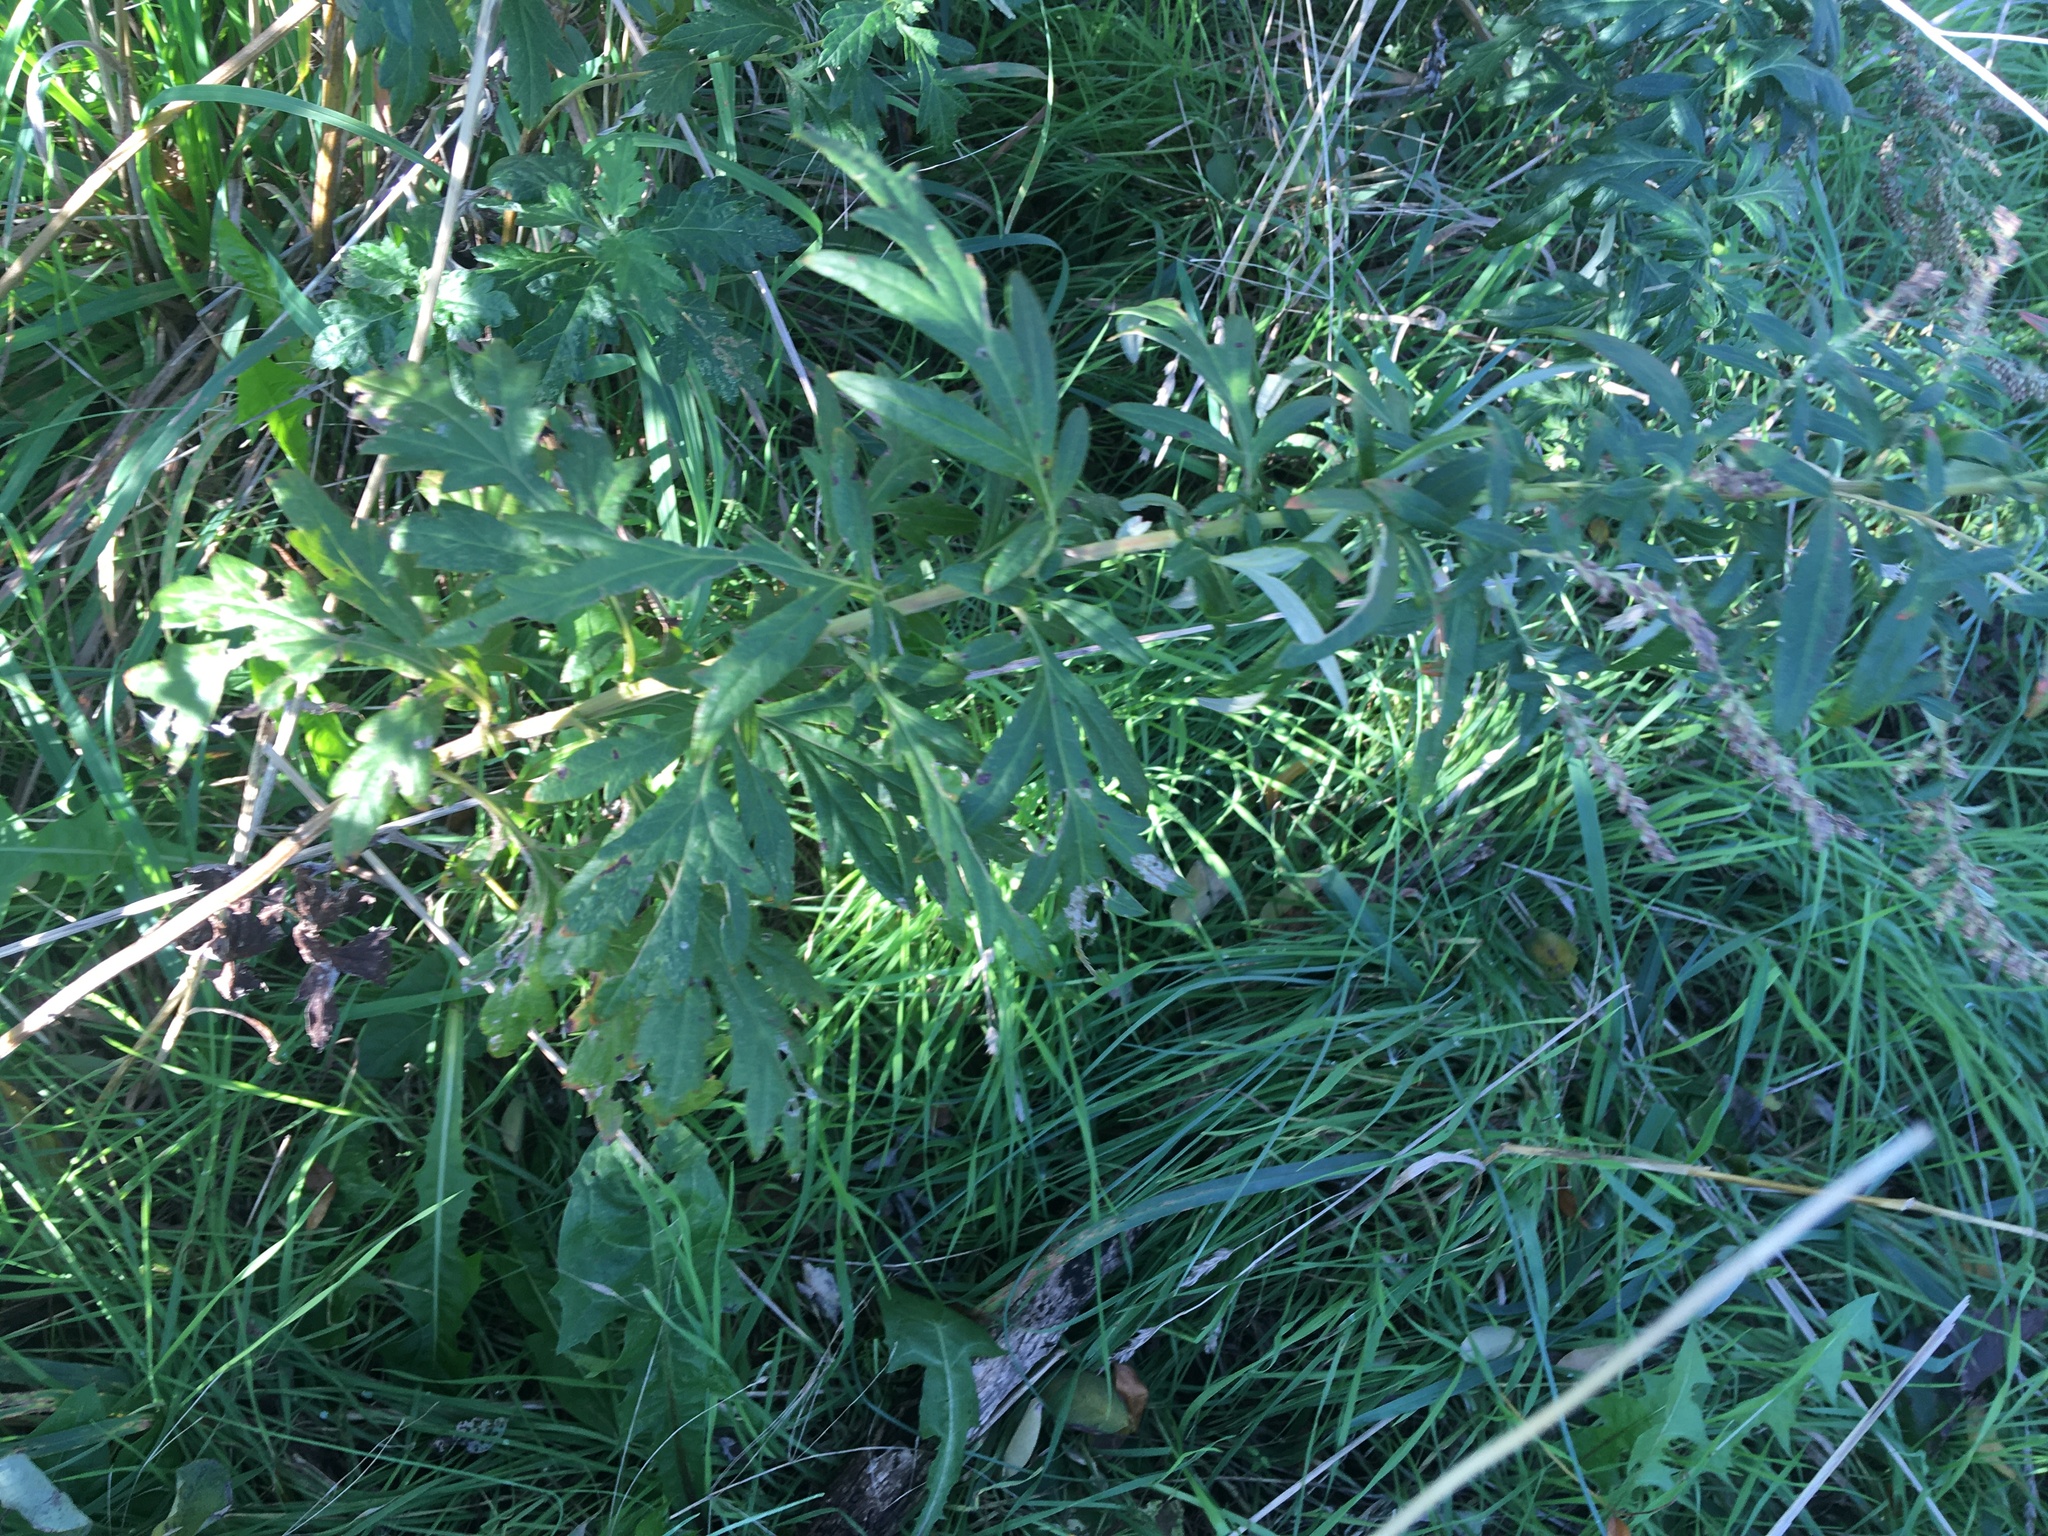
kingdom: Plantae
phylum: Tracheophyta
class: Magnoliopsida
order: Asterales
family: Asteraceae
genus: Artemisia
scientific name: Artemisia vulgaris
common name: Mugwort
